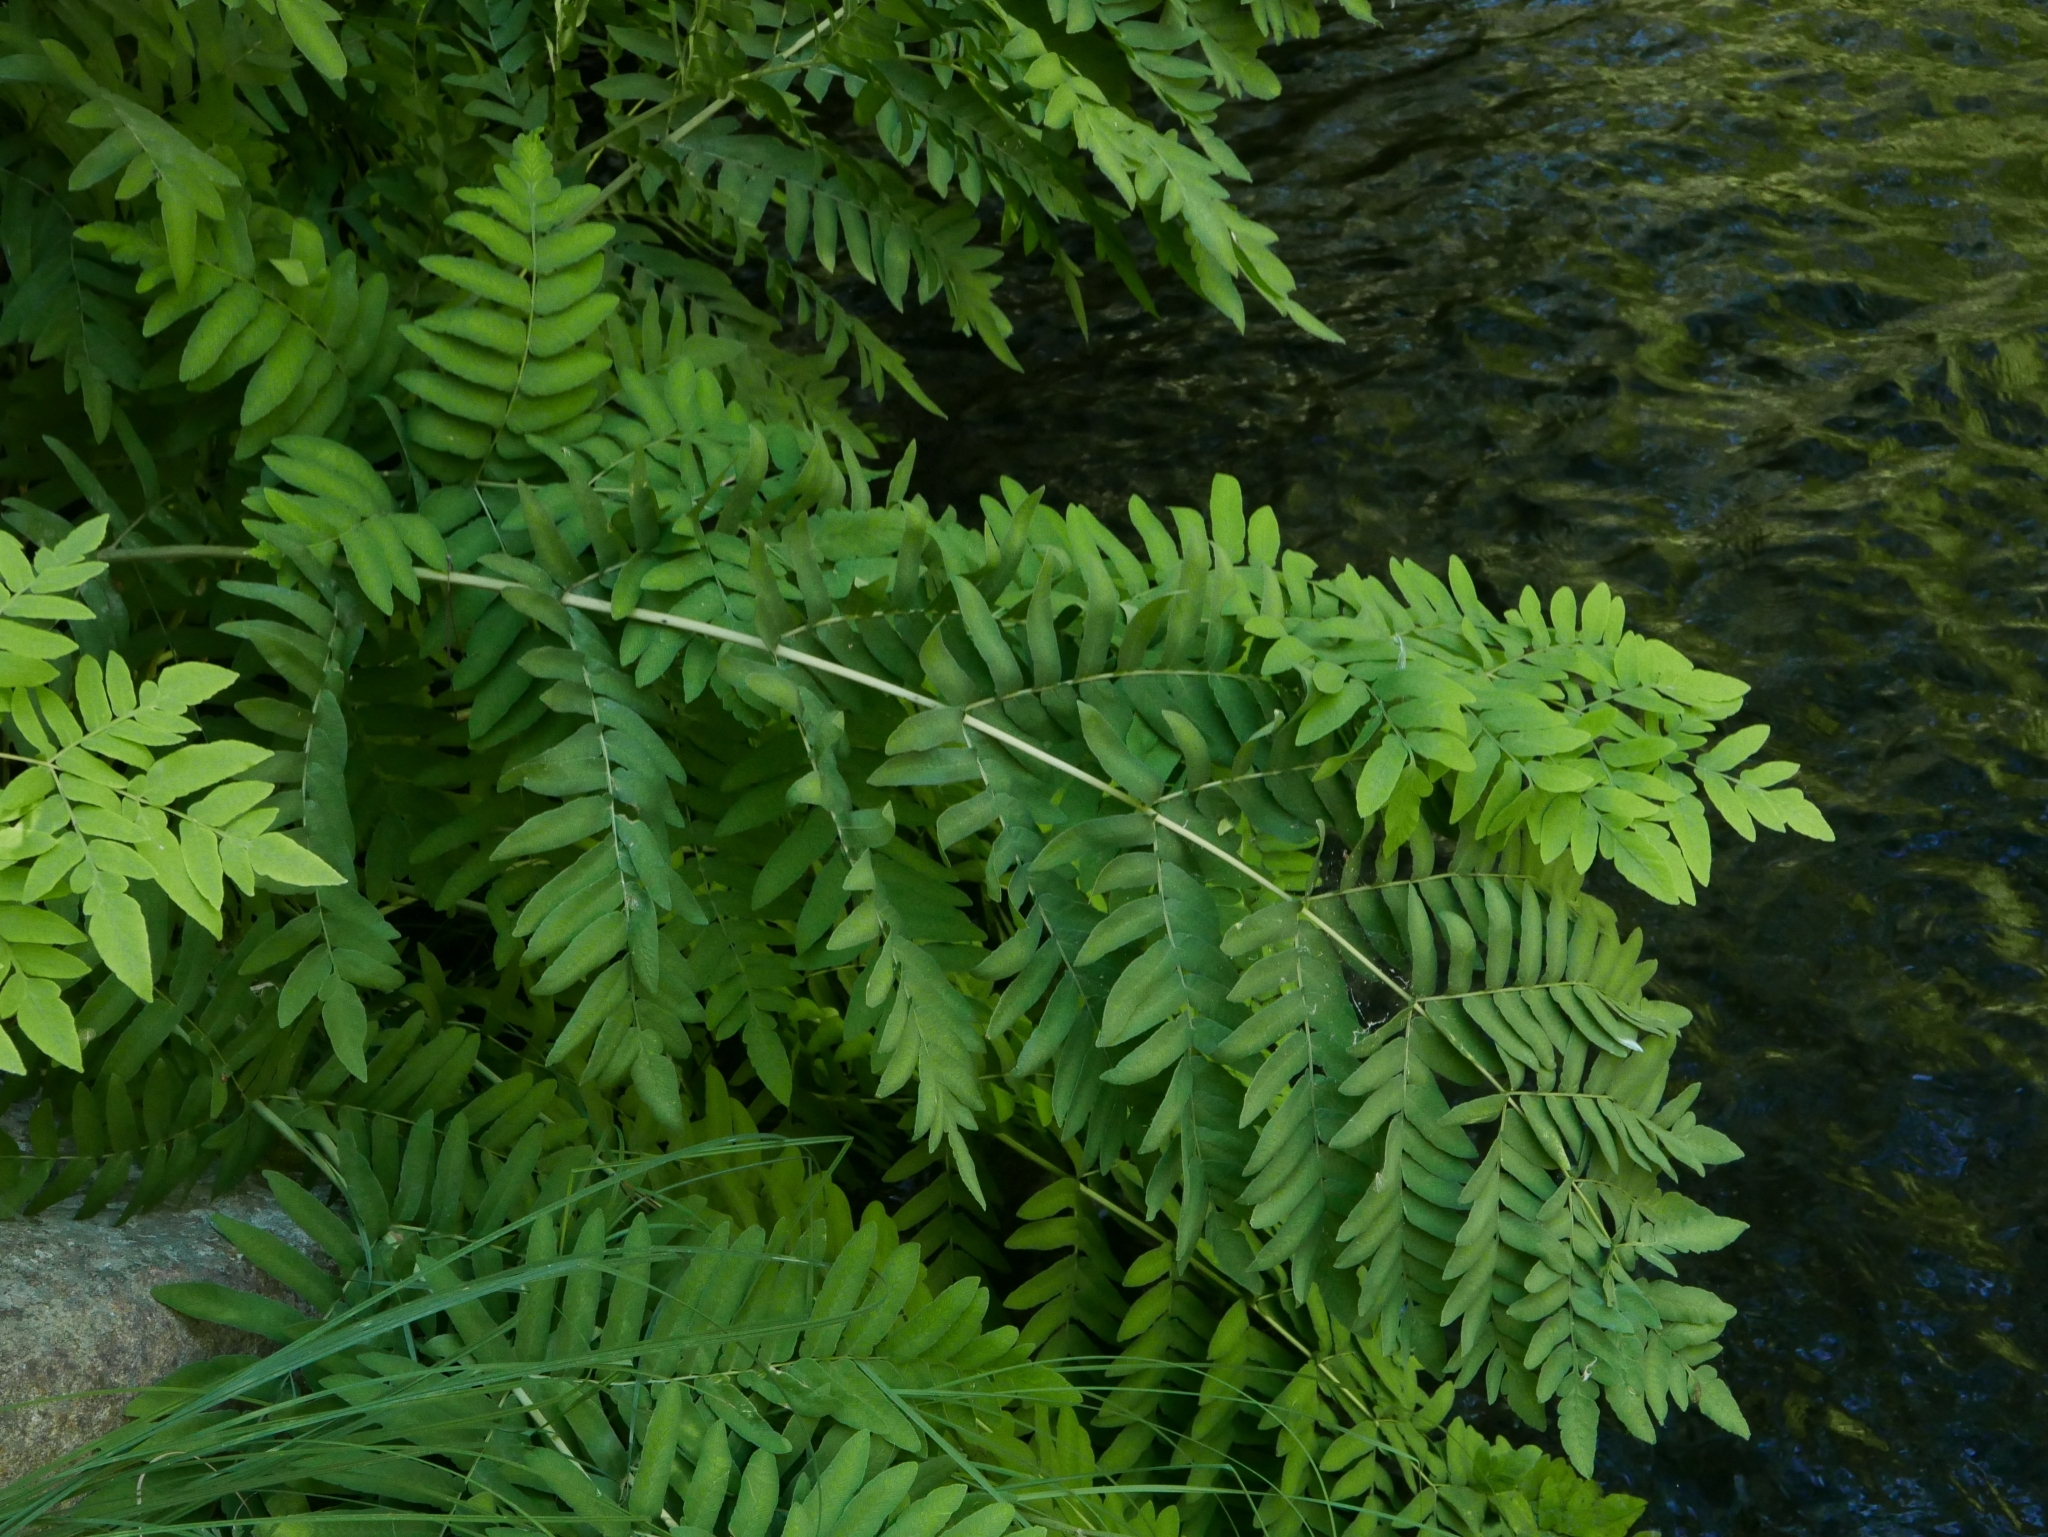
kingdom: Plantae
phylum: Tracheophyta
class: Polypodiopsida
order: Osmundales
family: Osmundaceae
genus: Osmunda
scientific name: Osmunda regalis
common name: Royal fern
